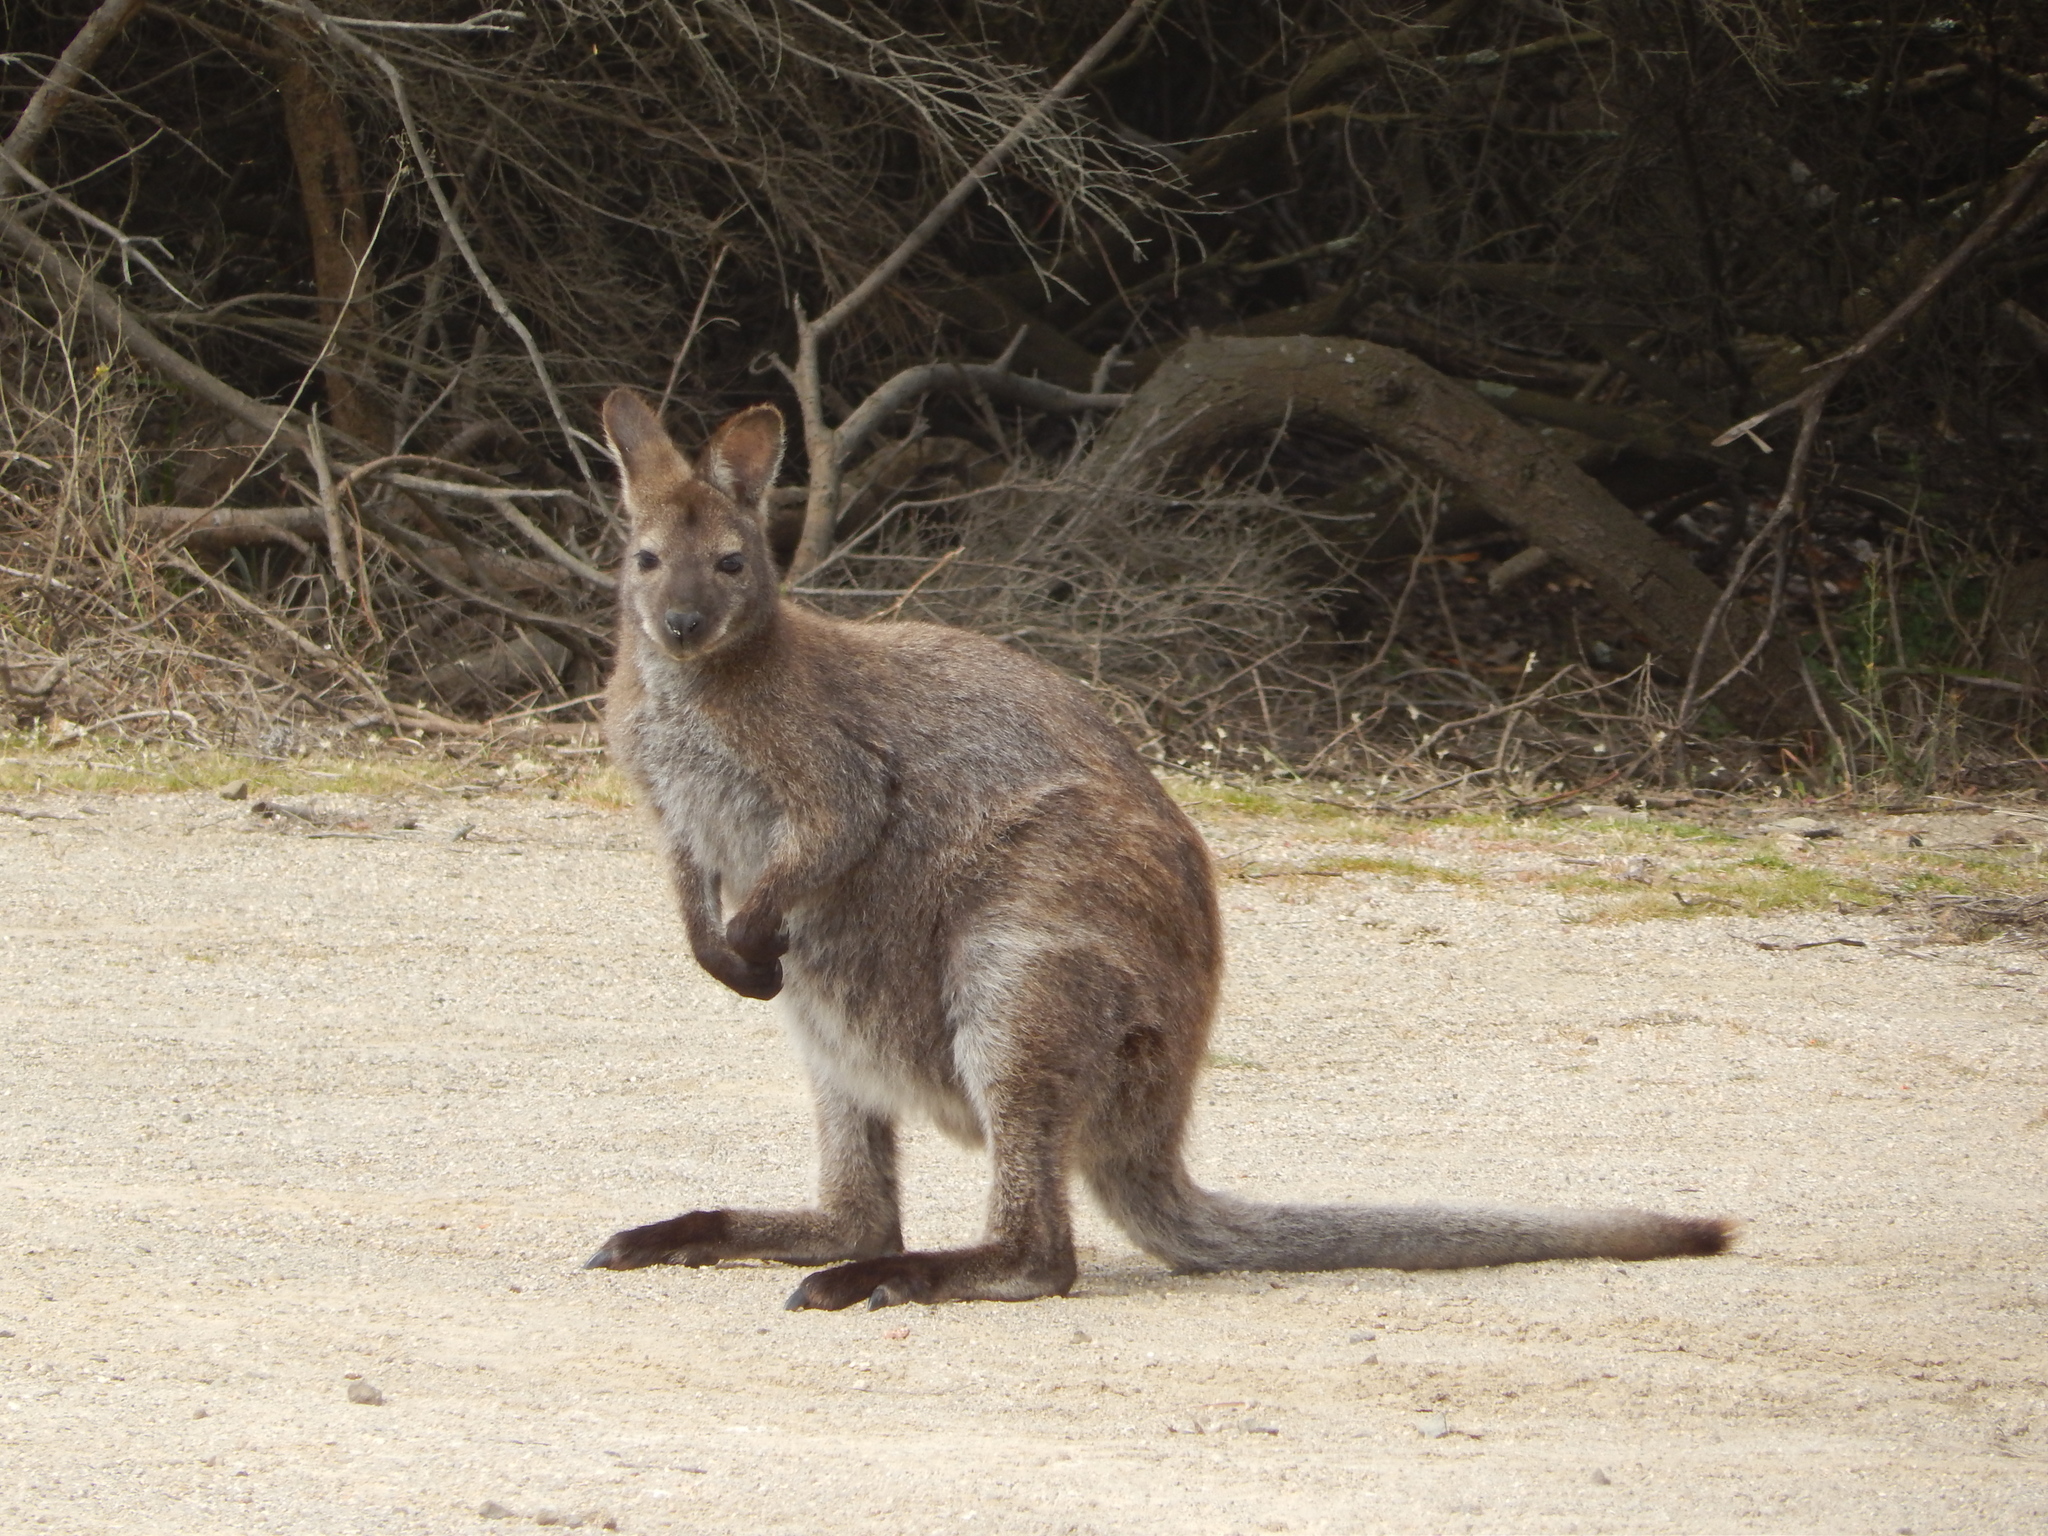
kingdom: Animalia
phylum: Chordata
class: Mammalia
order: Diprotodontia
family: Macropodidae
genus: Notamacropus
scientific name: Notamacropus rufogriseus
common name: Red-necked wallaby
